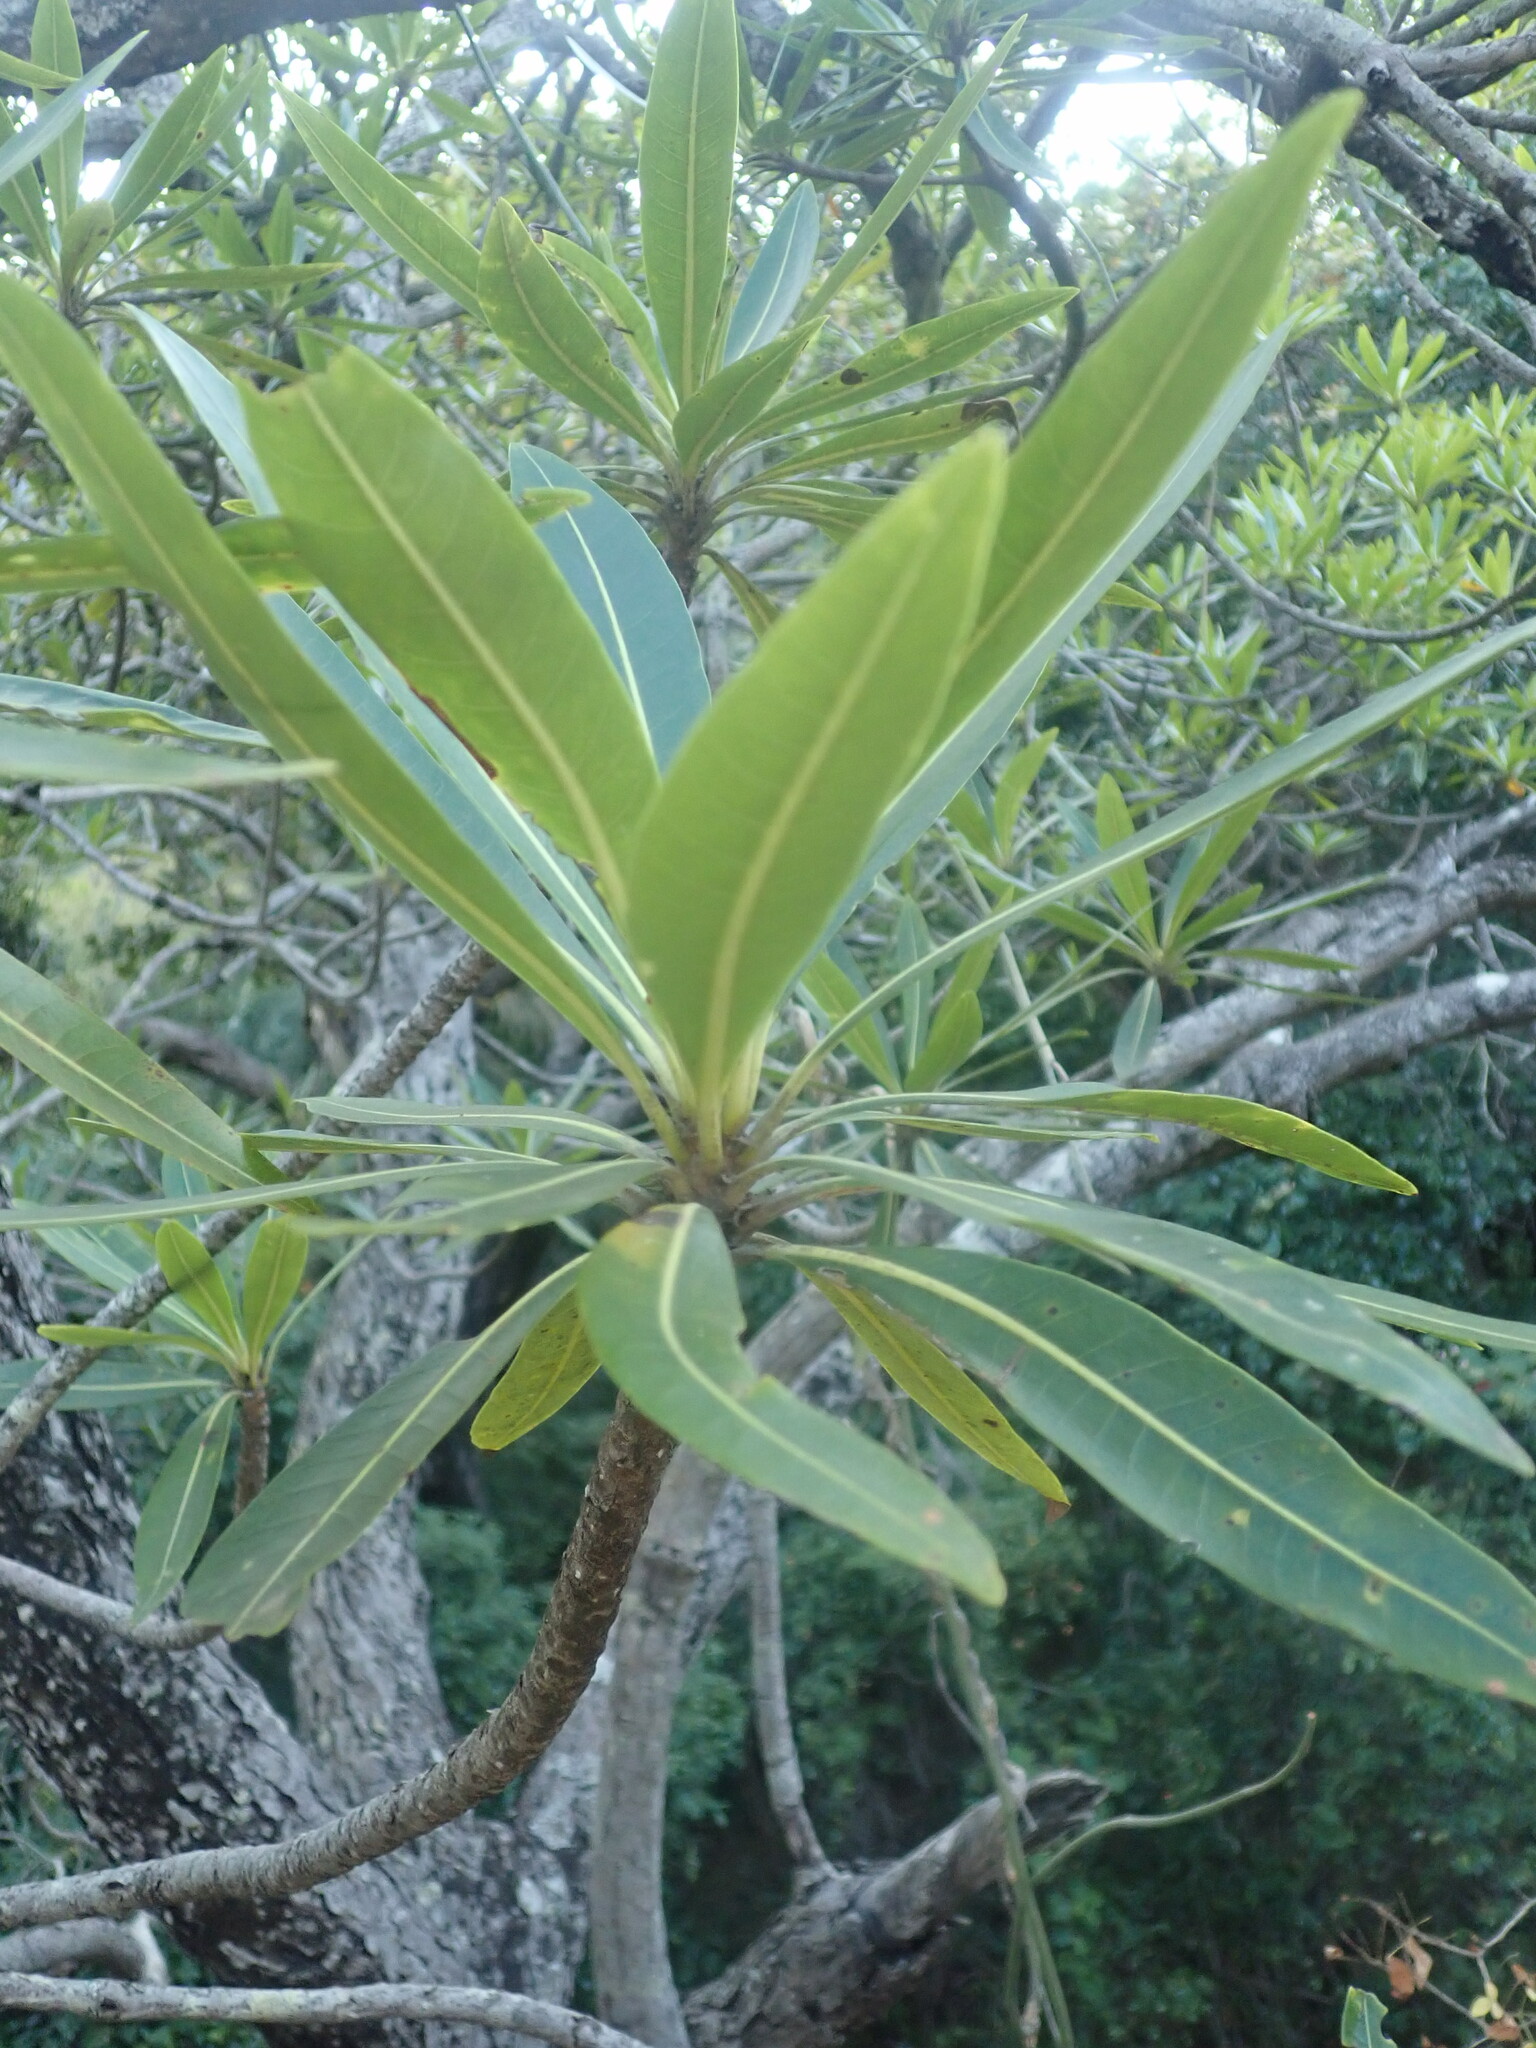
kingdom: Plantae
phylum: Tracheophyta
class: Magnoliopsida
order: Gentianales
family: Rubiaceae
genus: Breonadia
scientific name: Breonadia salicina
